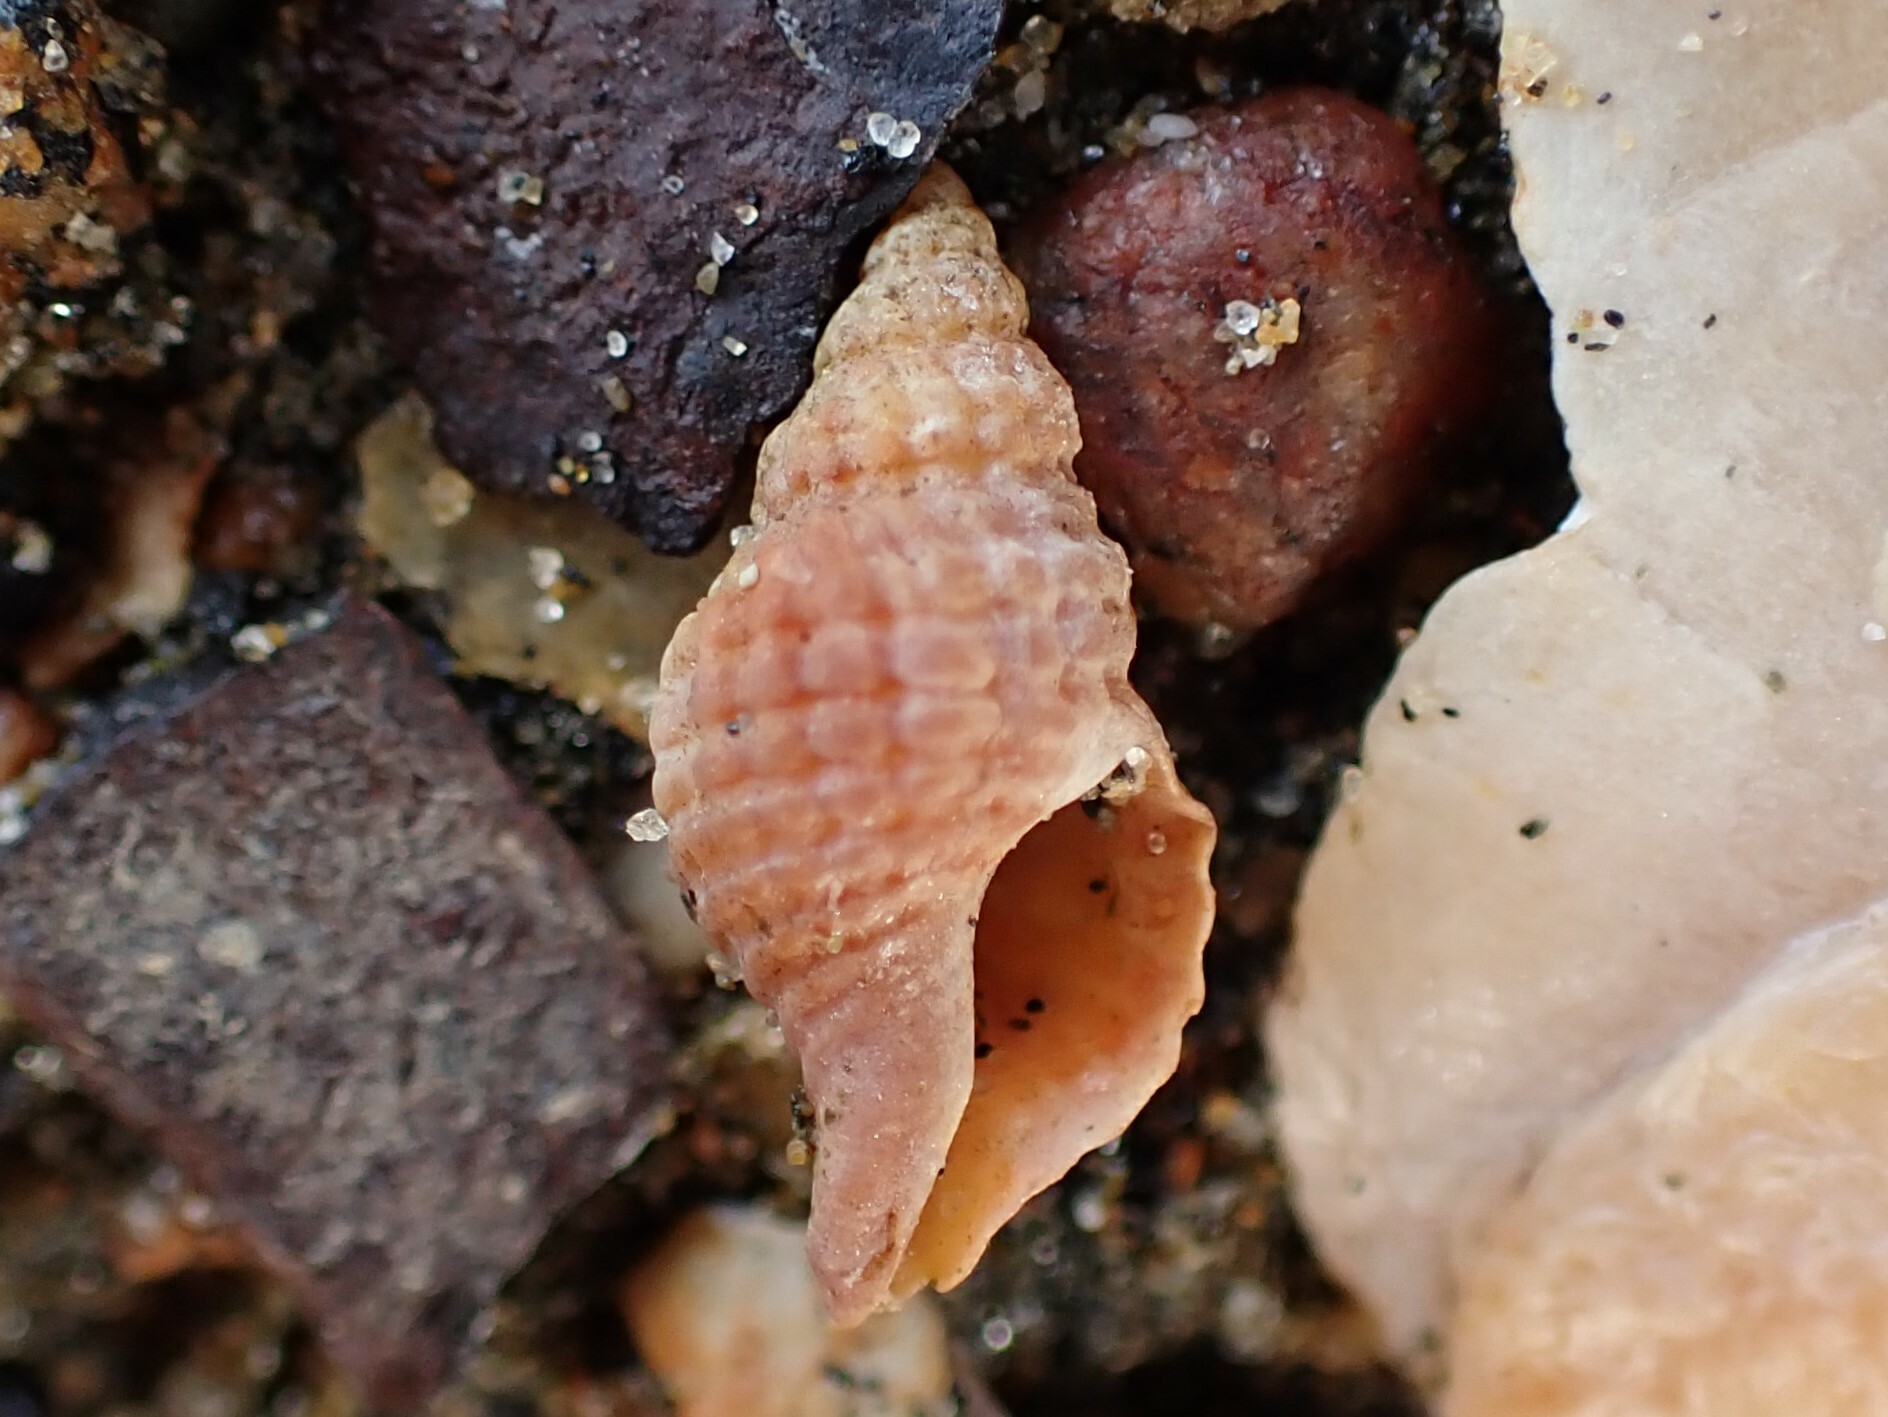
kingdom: Animalia
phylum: Mollusca
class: Gastropoda
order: Neogastropoda
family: Muricidae
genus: Xymene
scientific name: Xymene plebeius
